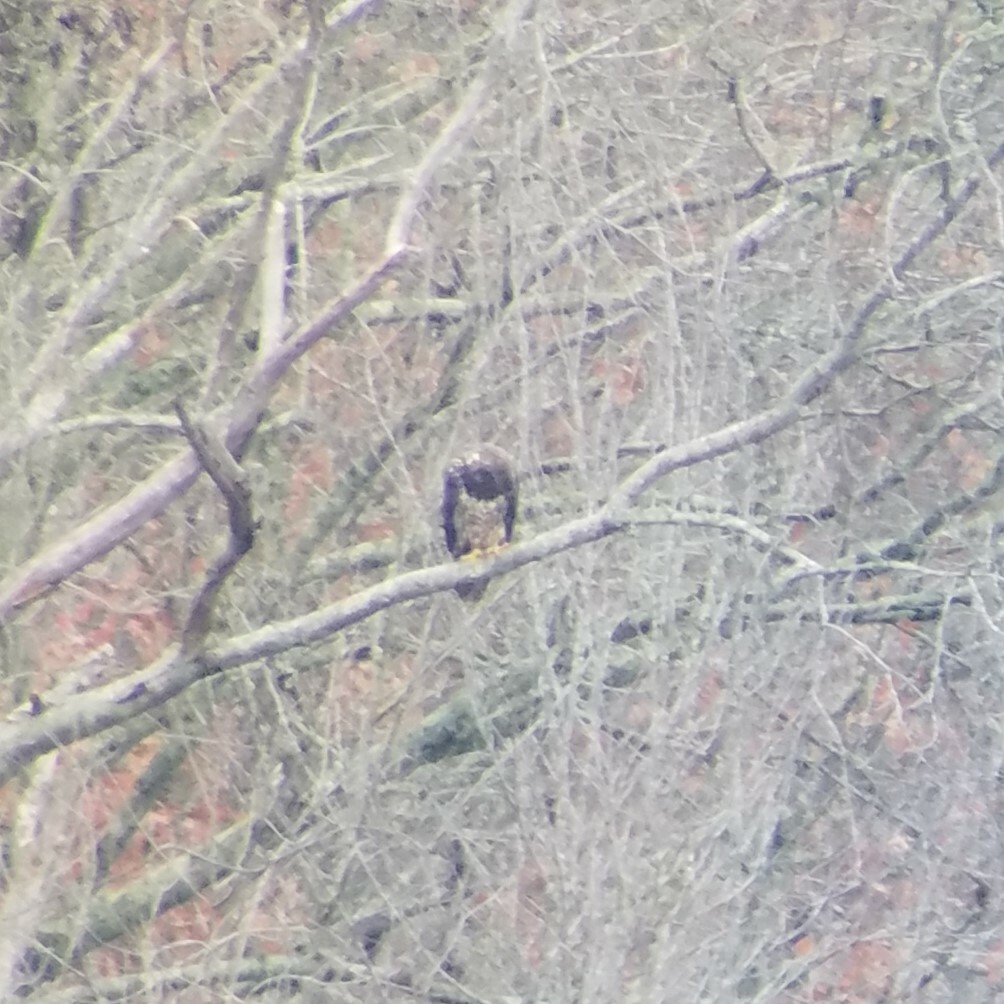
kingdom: Animalia
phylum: Chordata
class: Aves
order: Accipitriformes
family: Accipitridae
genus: Haliaeetus
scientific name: Haliaeetus leucocephalus
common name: Bald eagle
